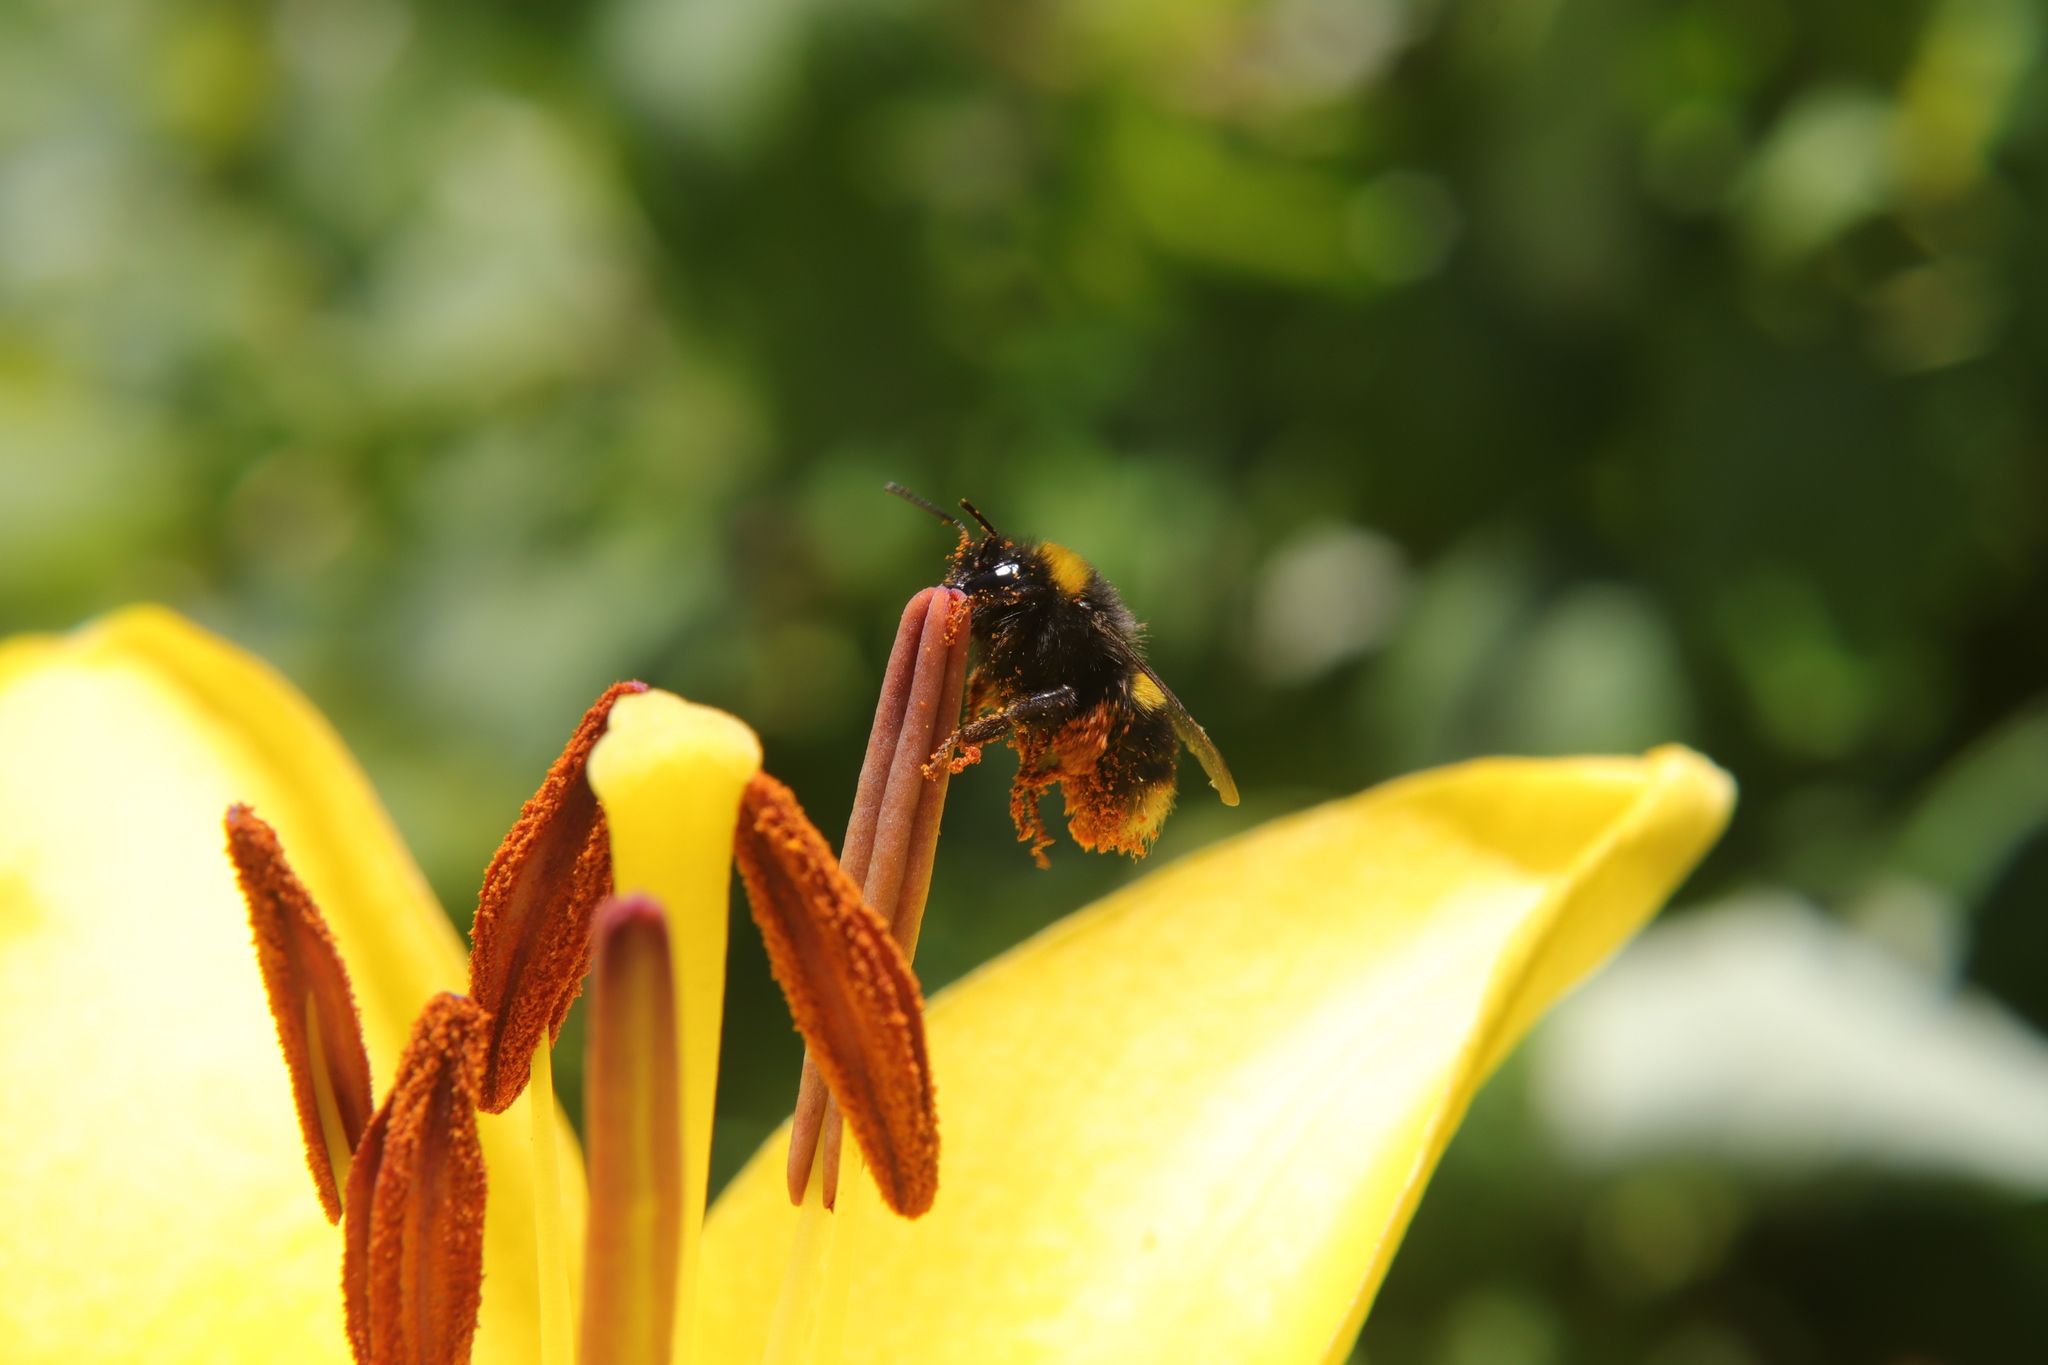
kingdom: Animalia
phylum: Arthropoda
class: Insecta
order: Hymenoptera
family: Apidae
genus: Bombus
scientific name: Bombus terrestris
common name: Buff-tailed bumblebee
